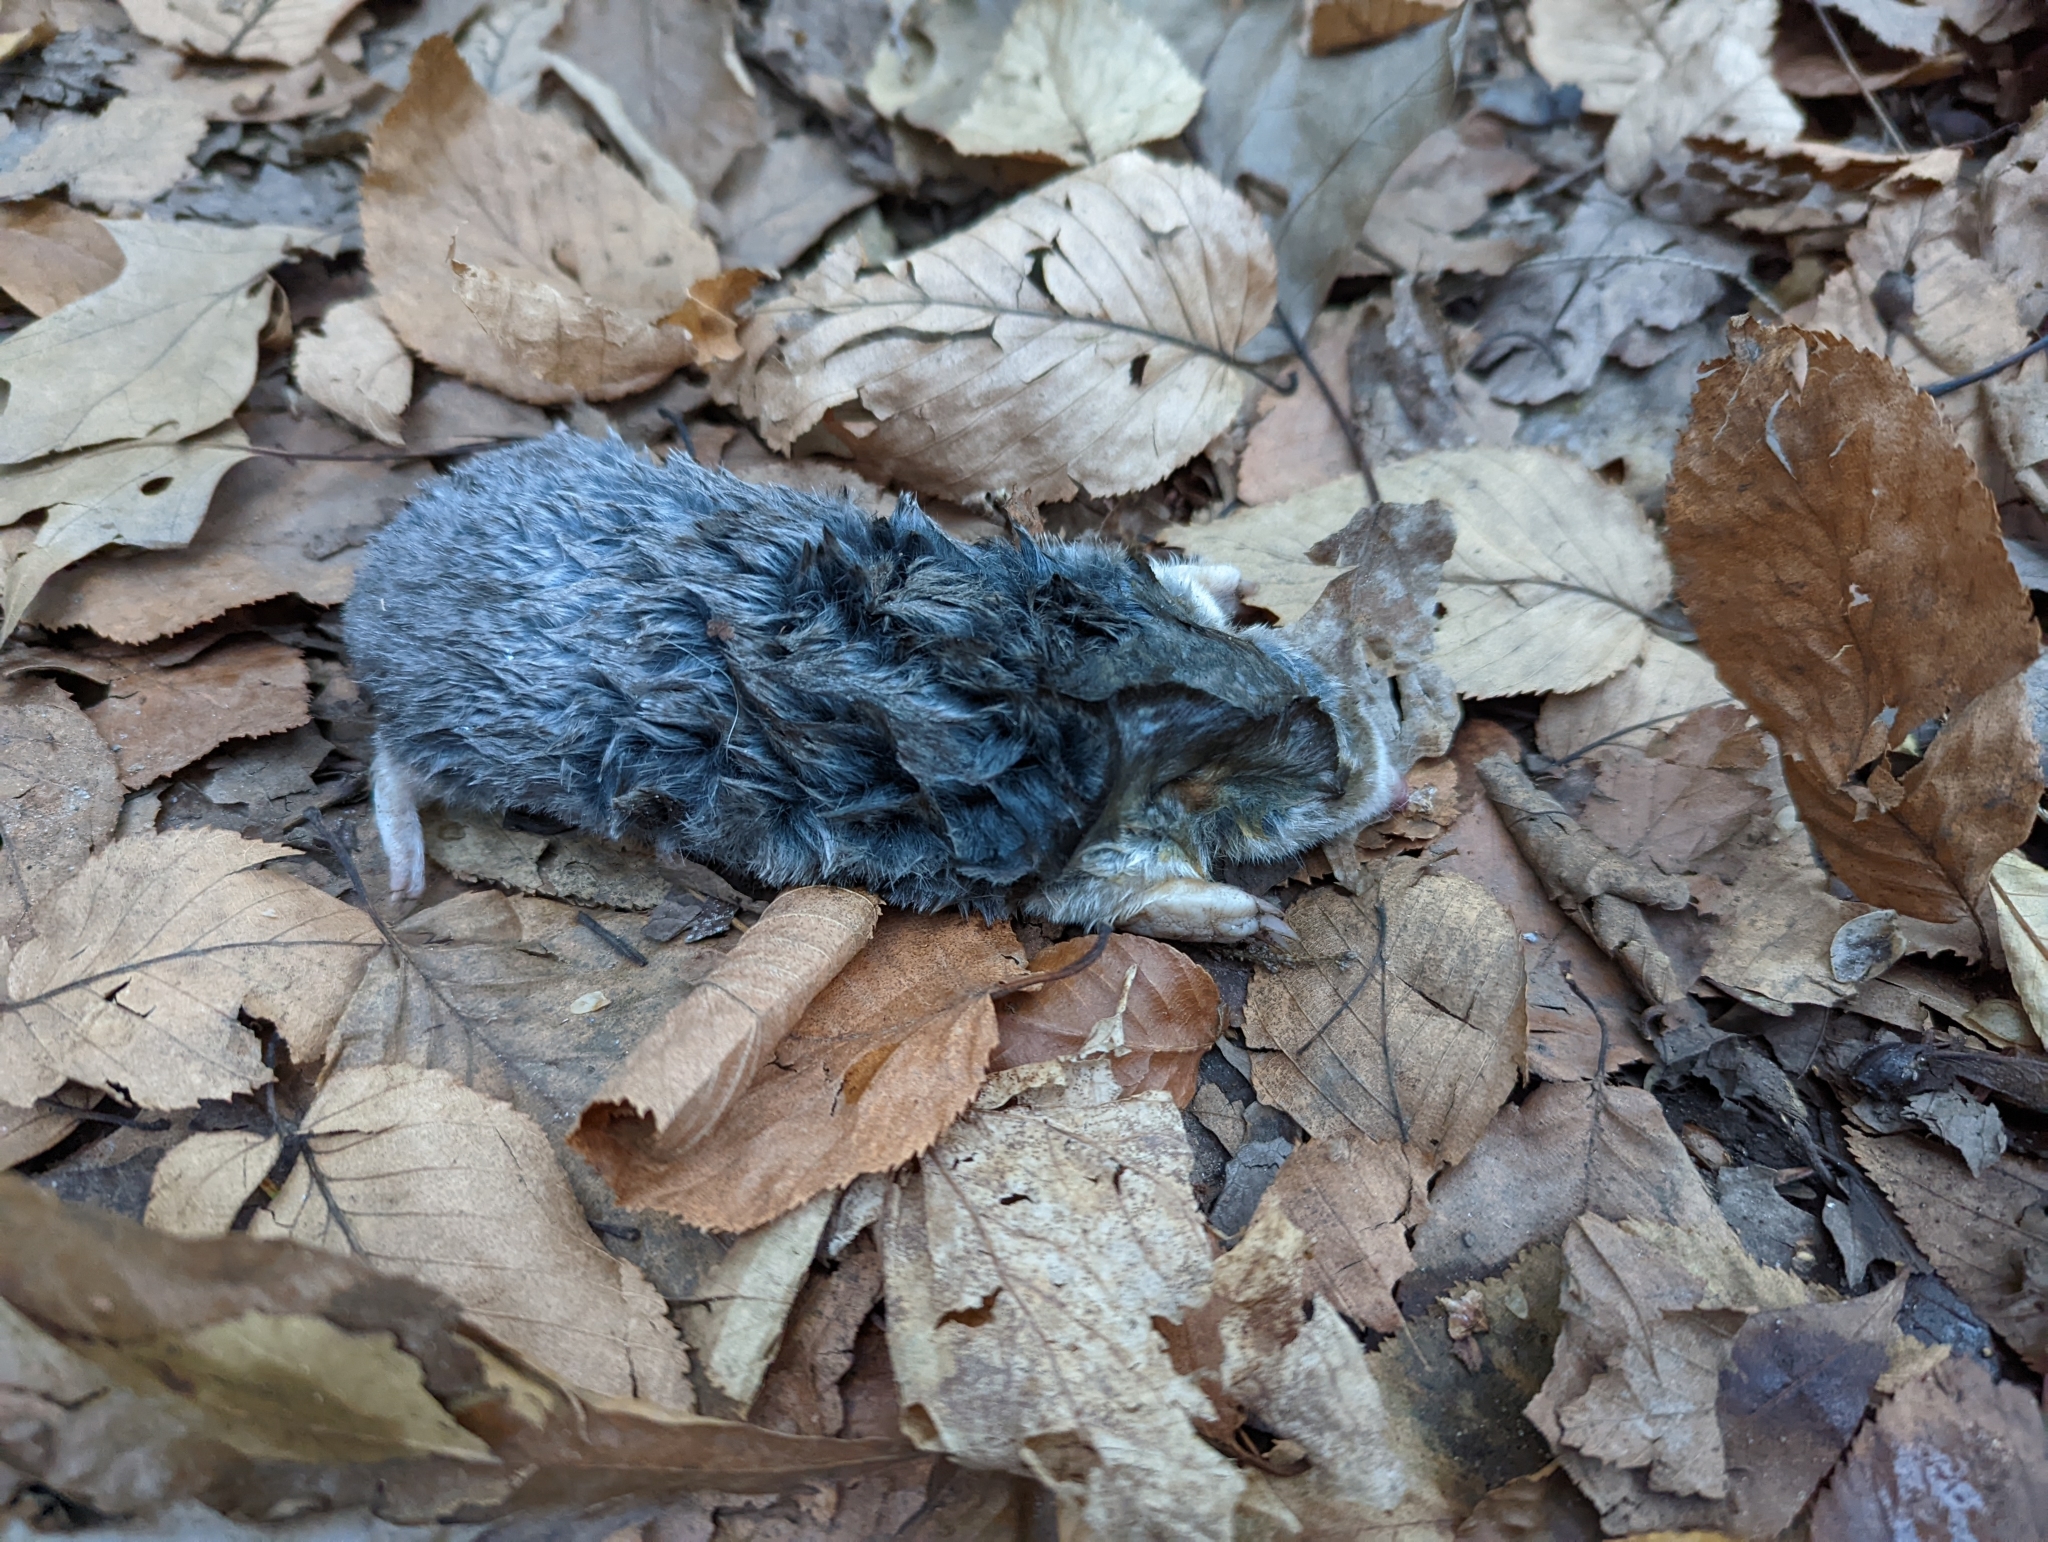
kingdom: Animalia
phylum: Chordata
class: Mammalia
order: Soricomorpha
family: Talpidae
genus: Scalopus
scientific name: Scalopus aquaticus
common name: Eastern mole
